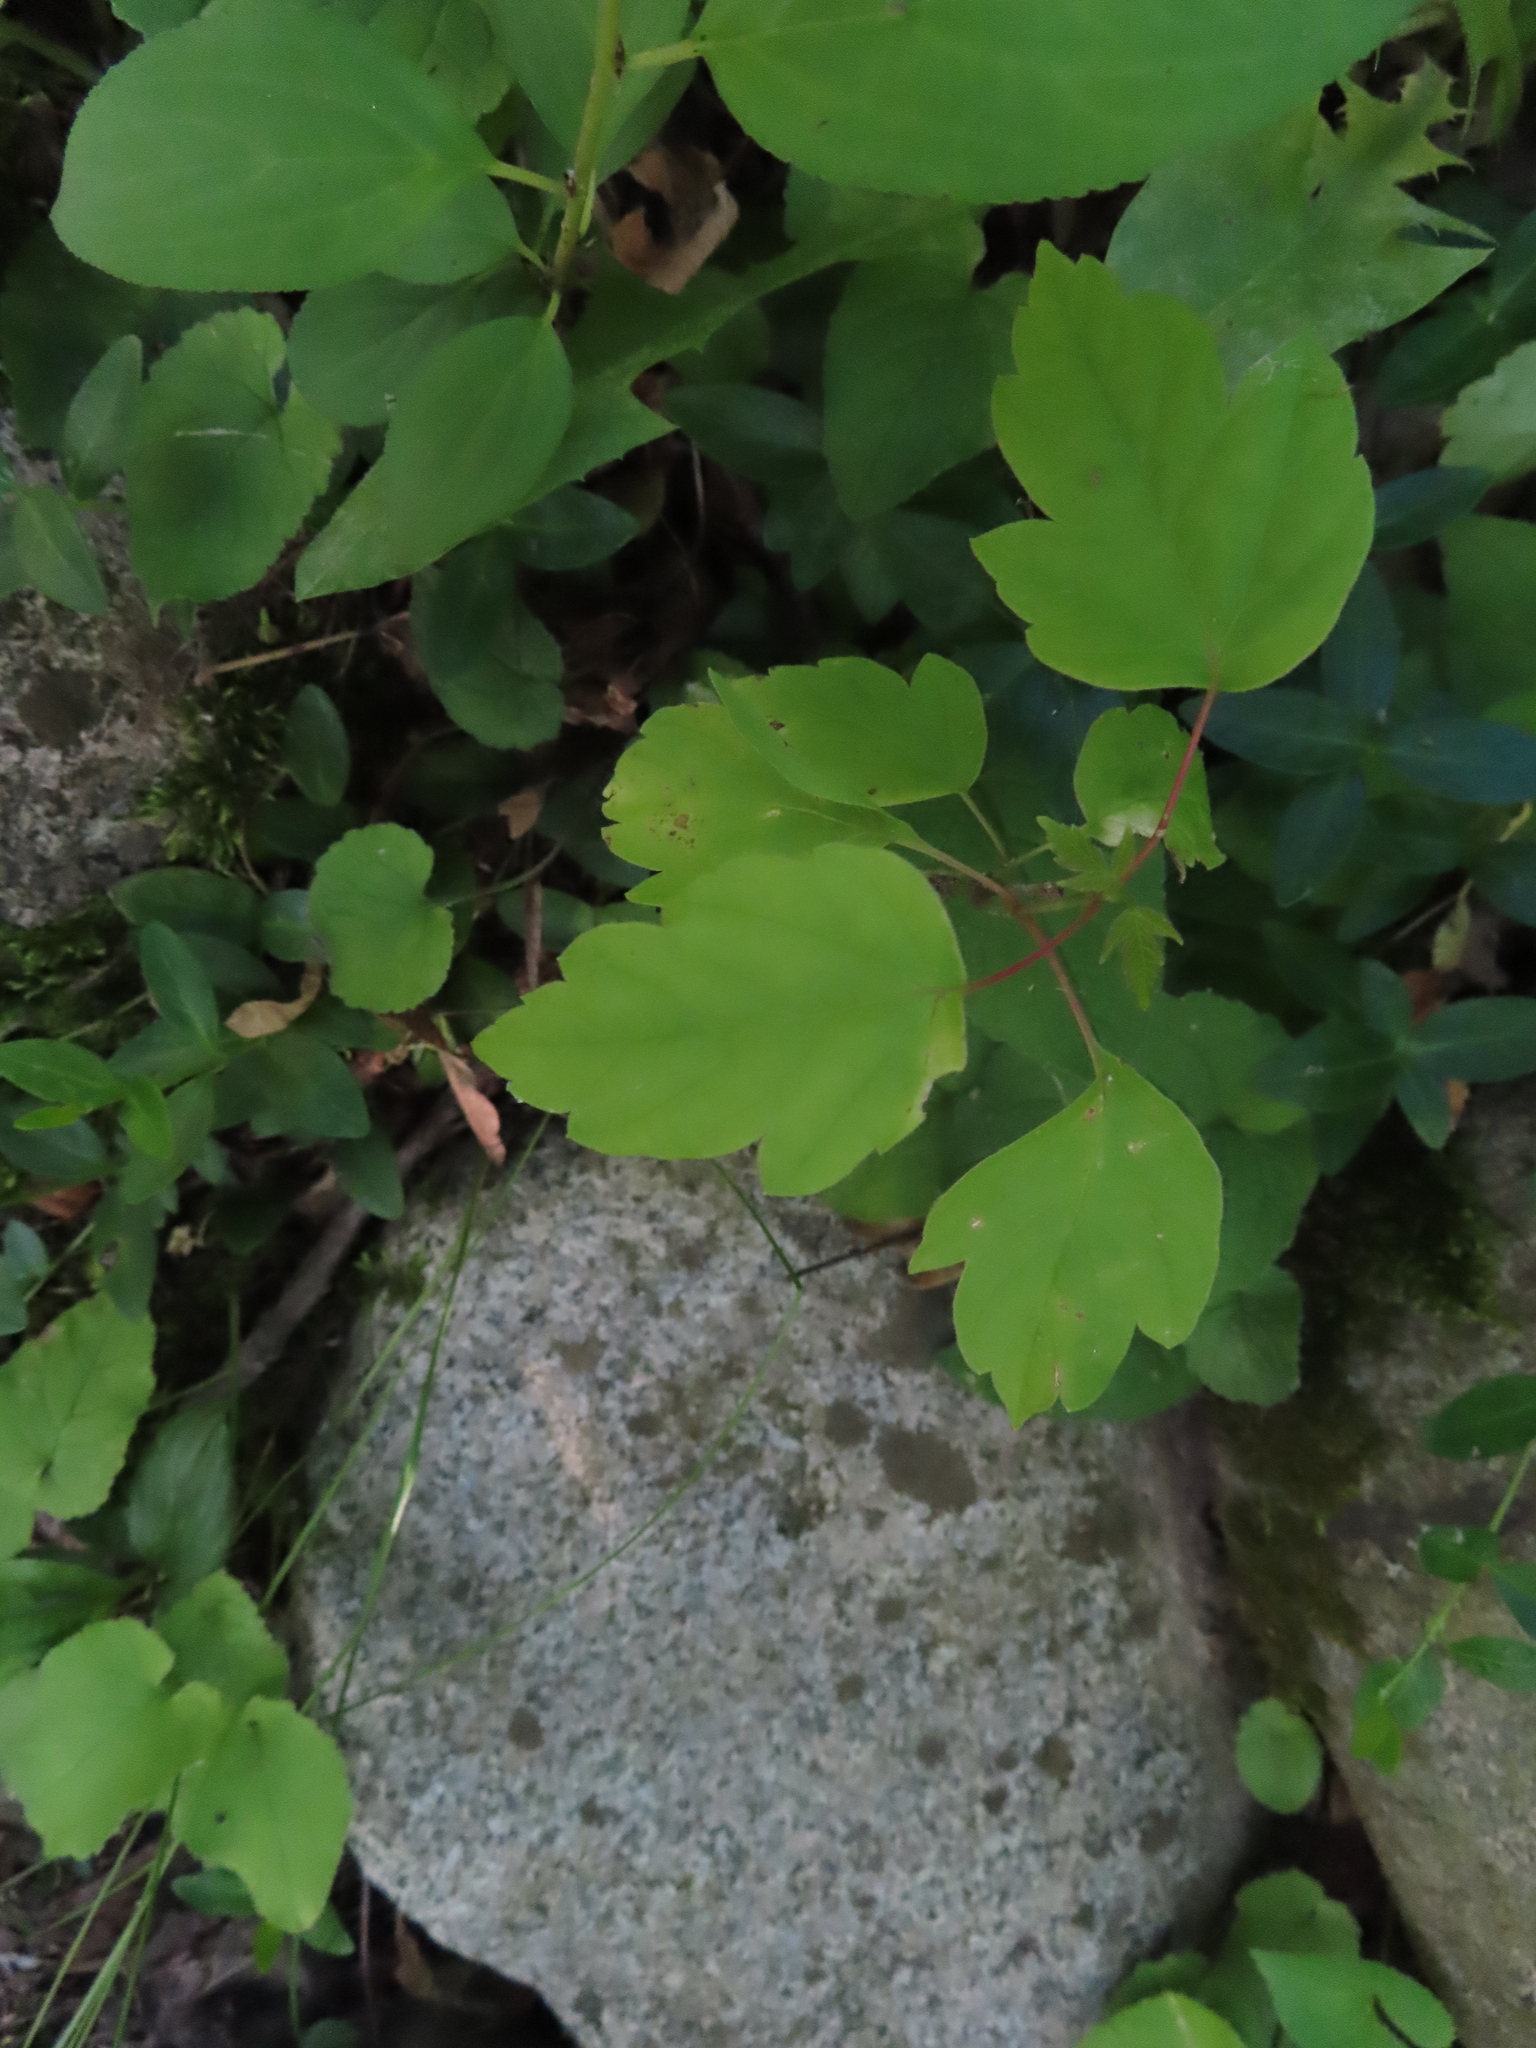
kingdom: Plantae
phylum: Tracheophyta
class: Magnoliopsida
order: Sapindales
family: Sapindaceae
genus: Acer
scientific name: Acer negundo
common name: Ashleaf maple
